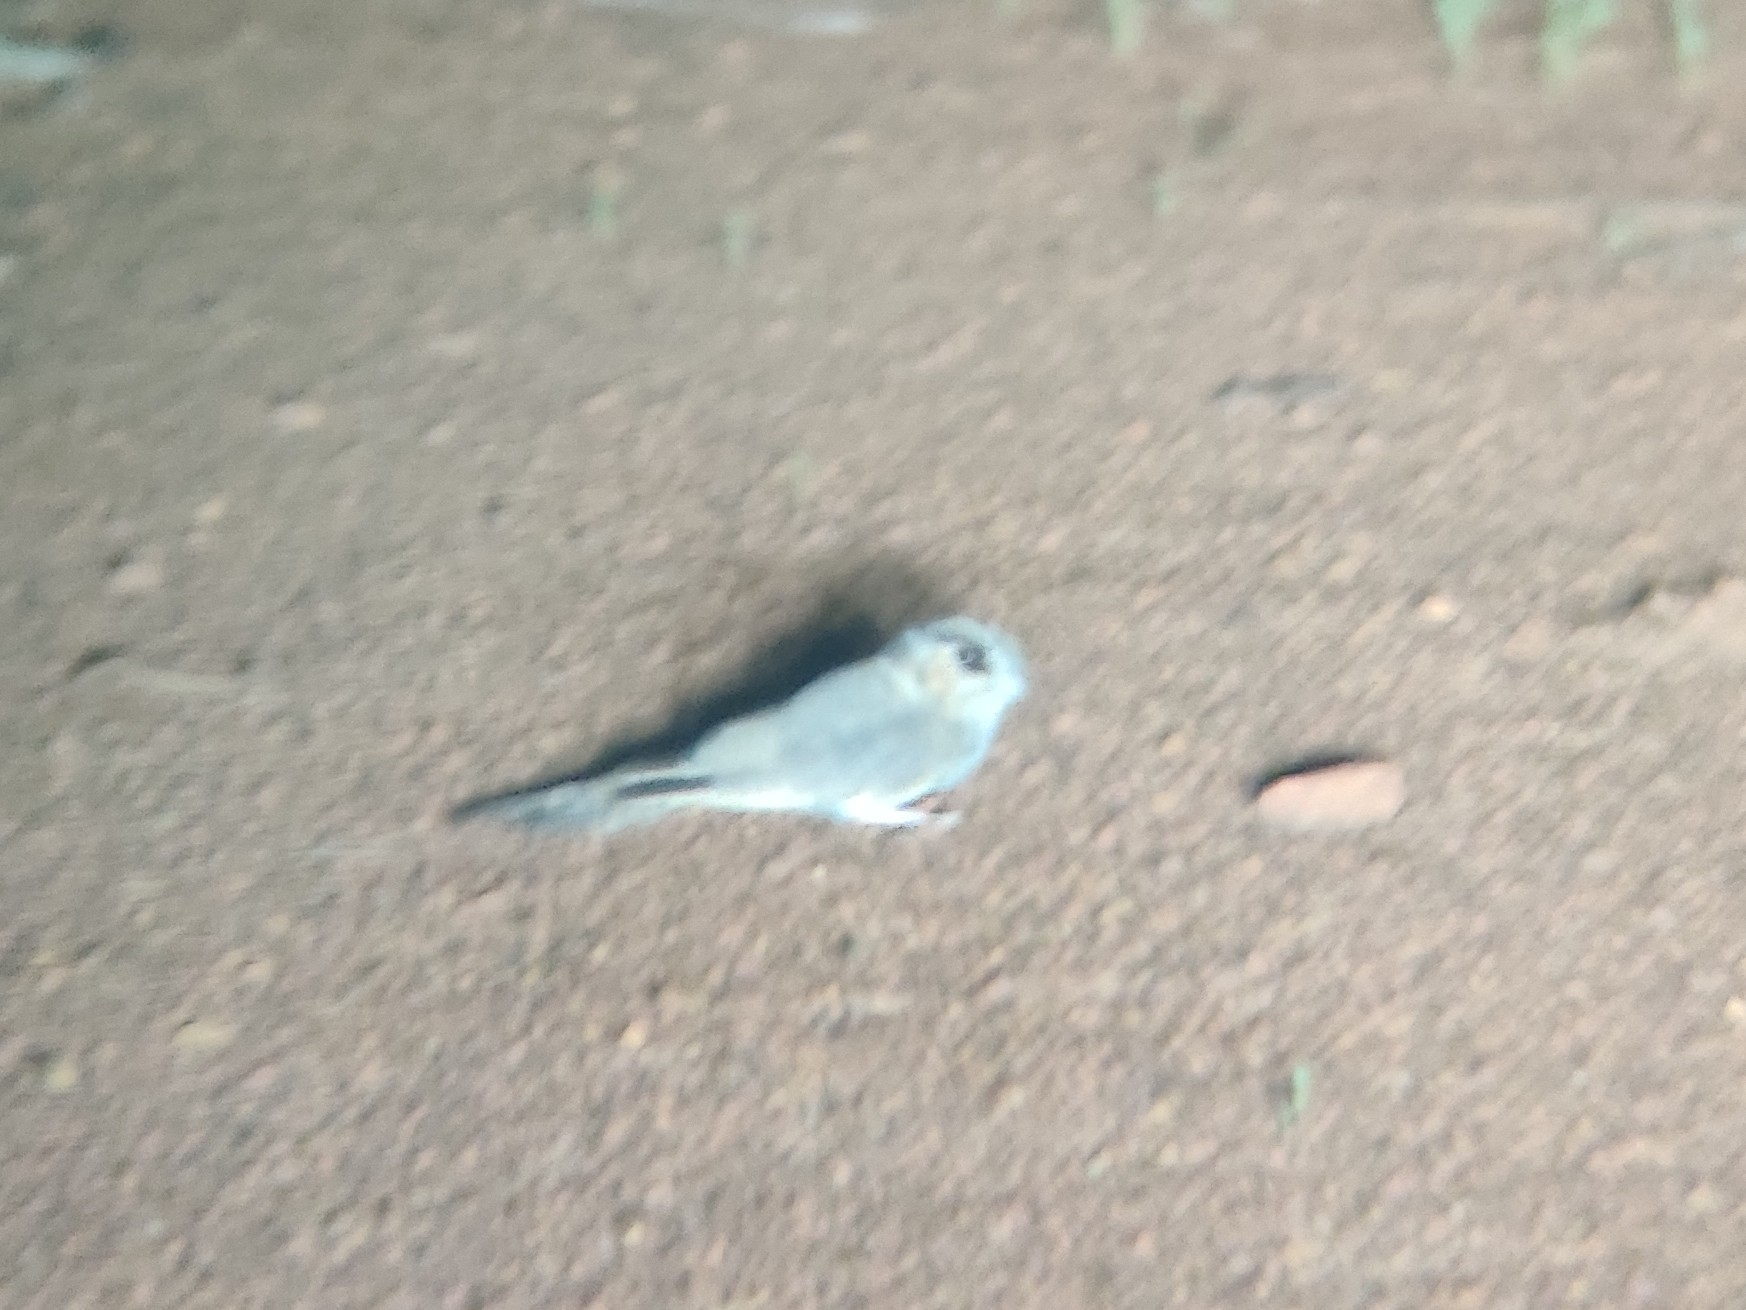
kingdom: Animalia
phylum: Chordata
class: Aves
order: Apodiformes
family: Aegothelidae
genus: Aegotheles
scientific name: Aegotheles cristatus
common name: Australian owlet-nightjar
